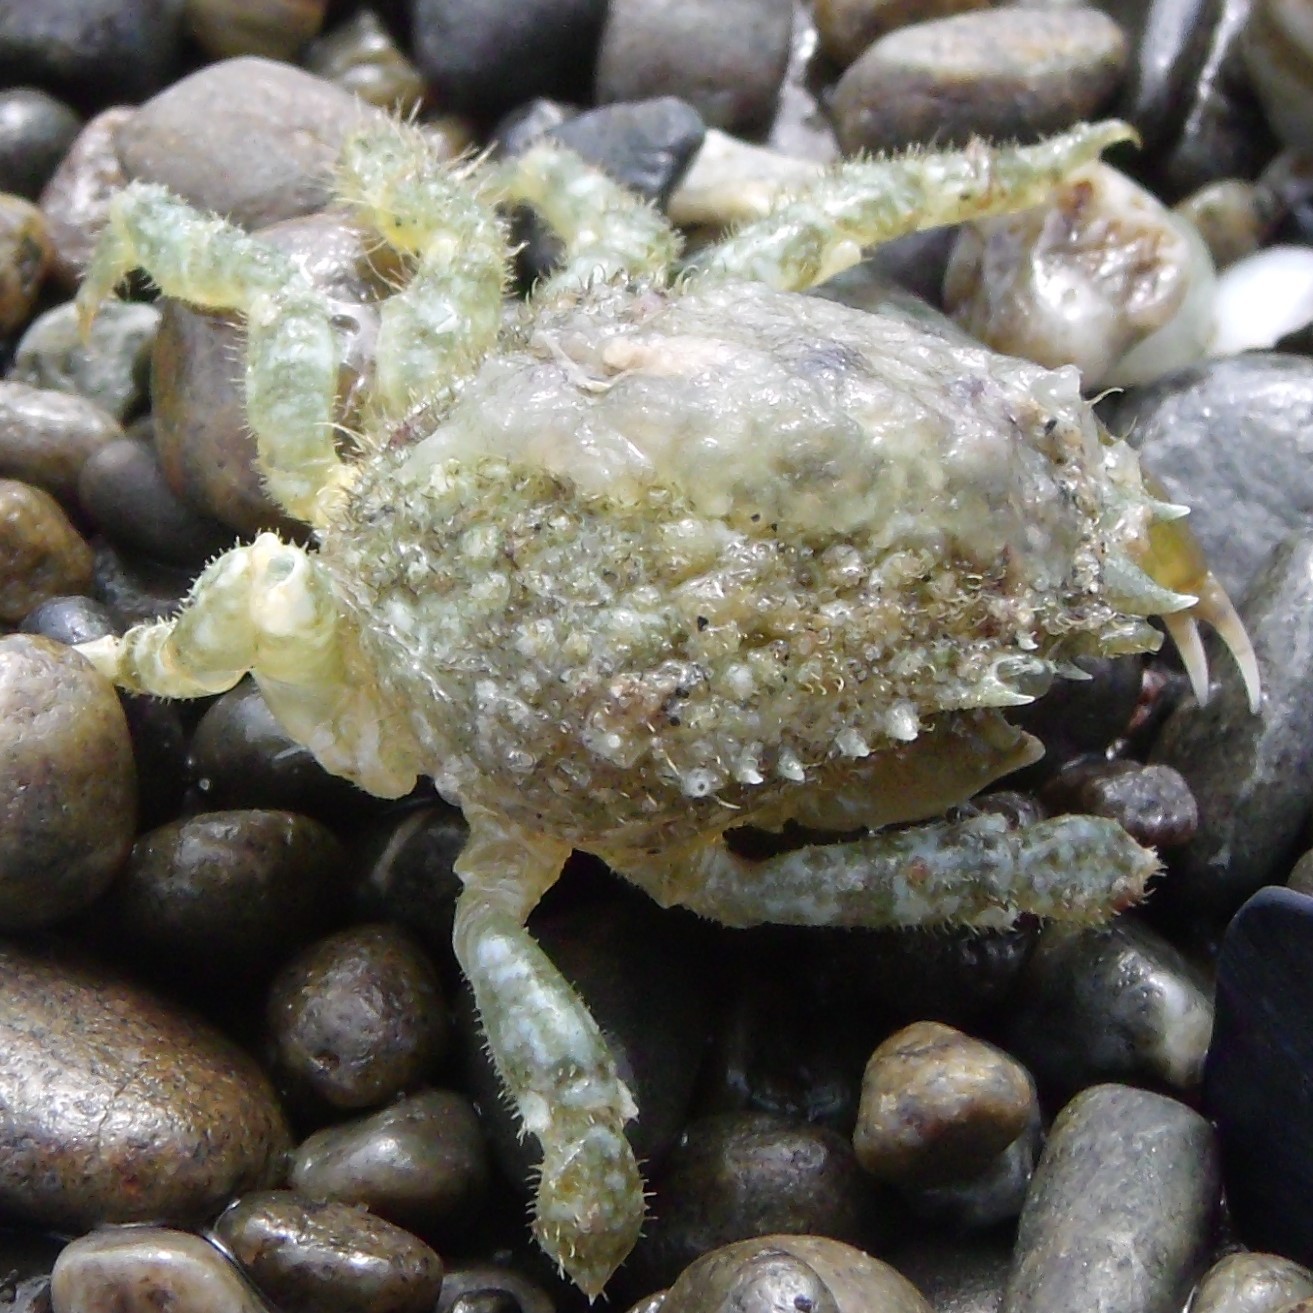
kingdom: Animalia
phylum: Arthropoda
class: Malacostraca
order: Decapoda
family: Majidae
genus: Notomithrax
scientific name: Notomithrax ursus
